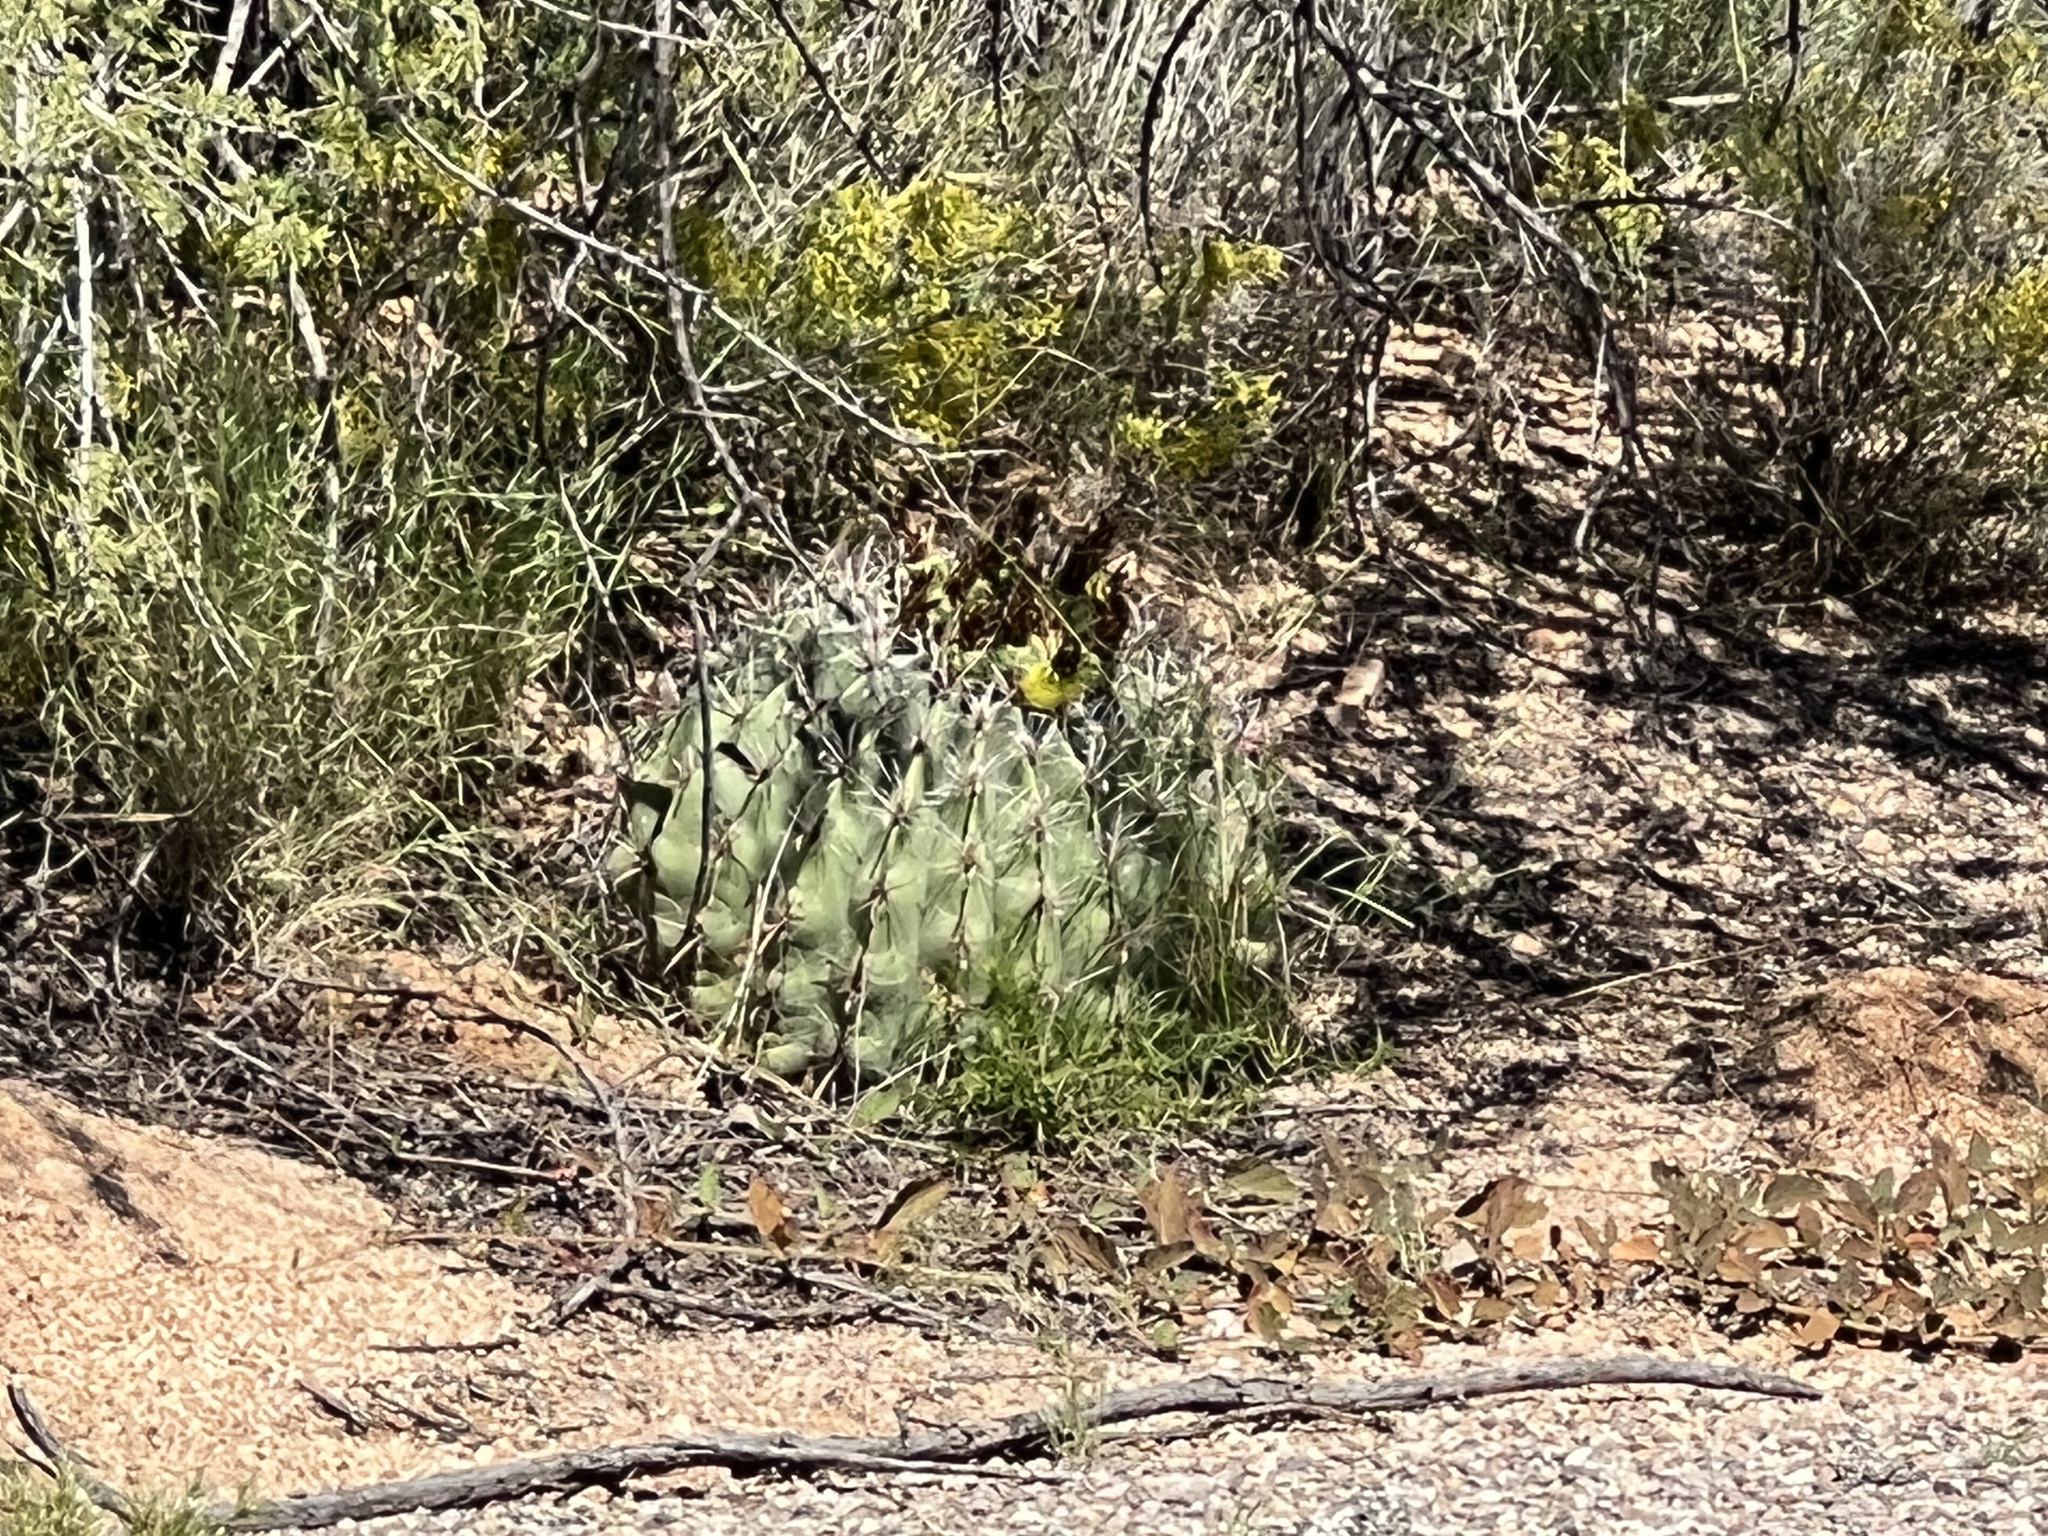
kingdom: Plantae
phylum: Tracheophyta
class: Magnoliopsida
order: Caryophyllales
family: Cactaceae
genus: Ferocactus
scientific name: Ferocactus wislizeni
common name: Candy barrel cactus
